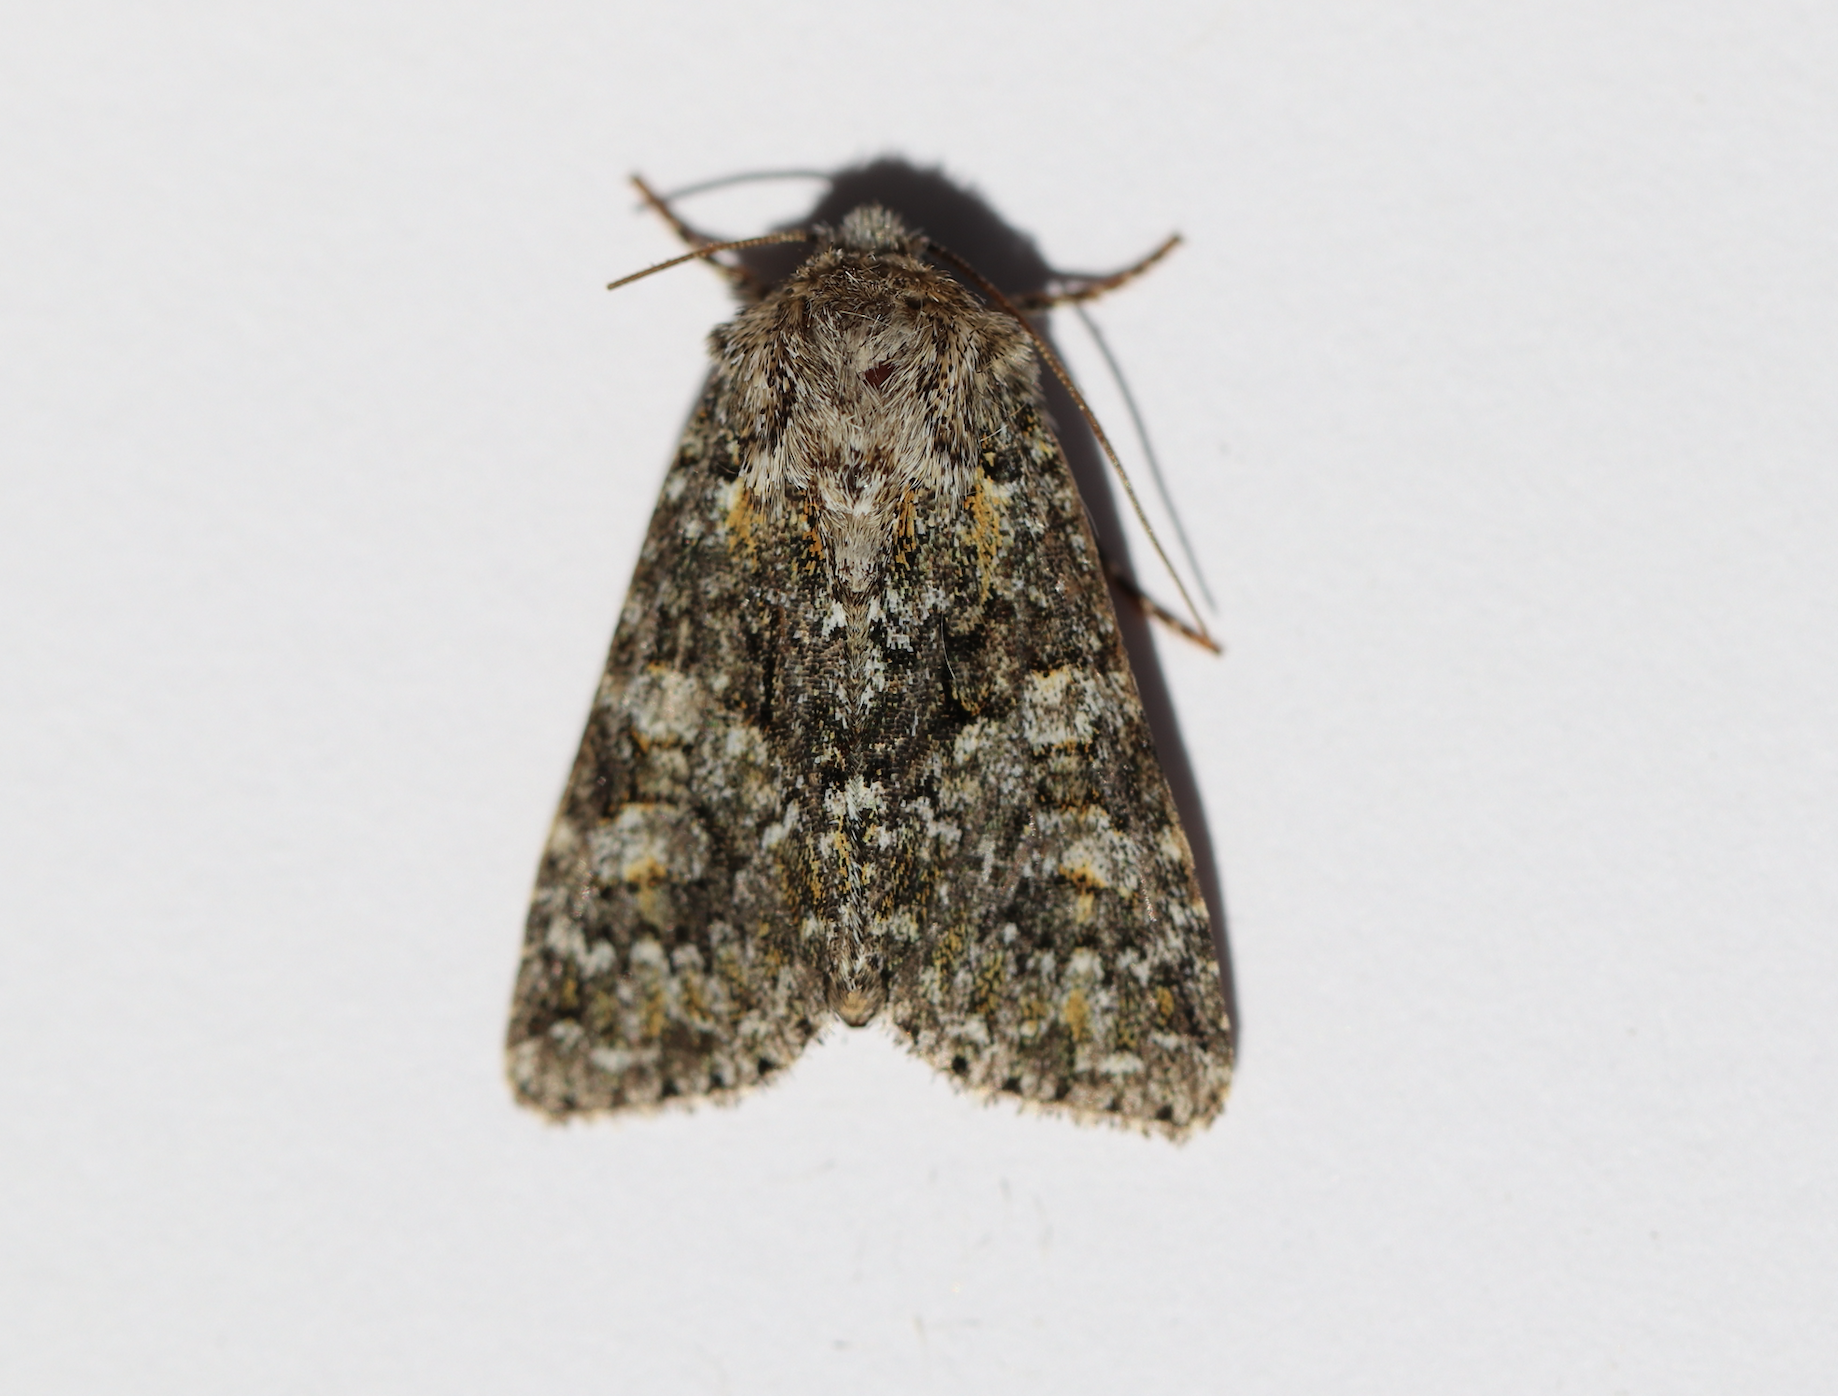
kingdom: Animalia
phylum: Arthropoda
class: Insecta
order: Lepidoptera
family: Noctuidae
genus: Hadena
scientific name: Hadena filograna
